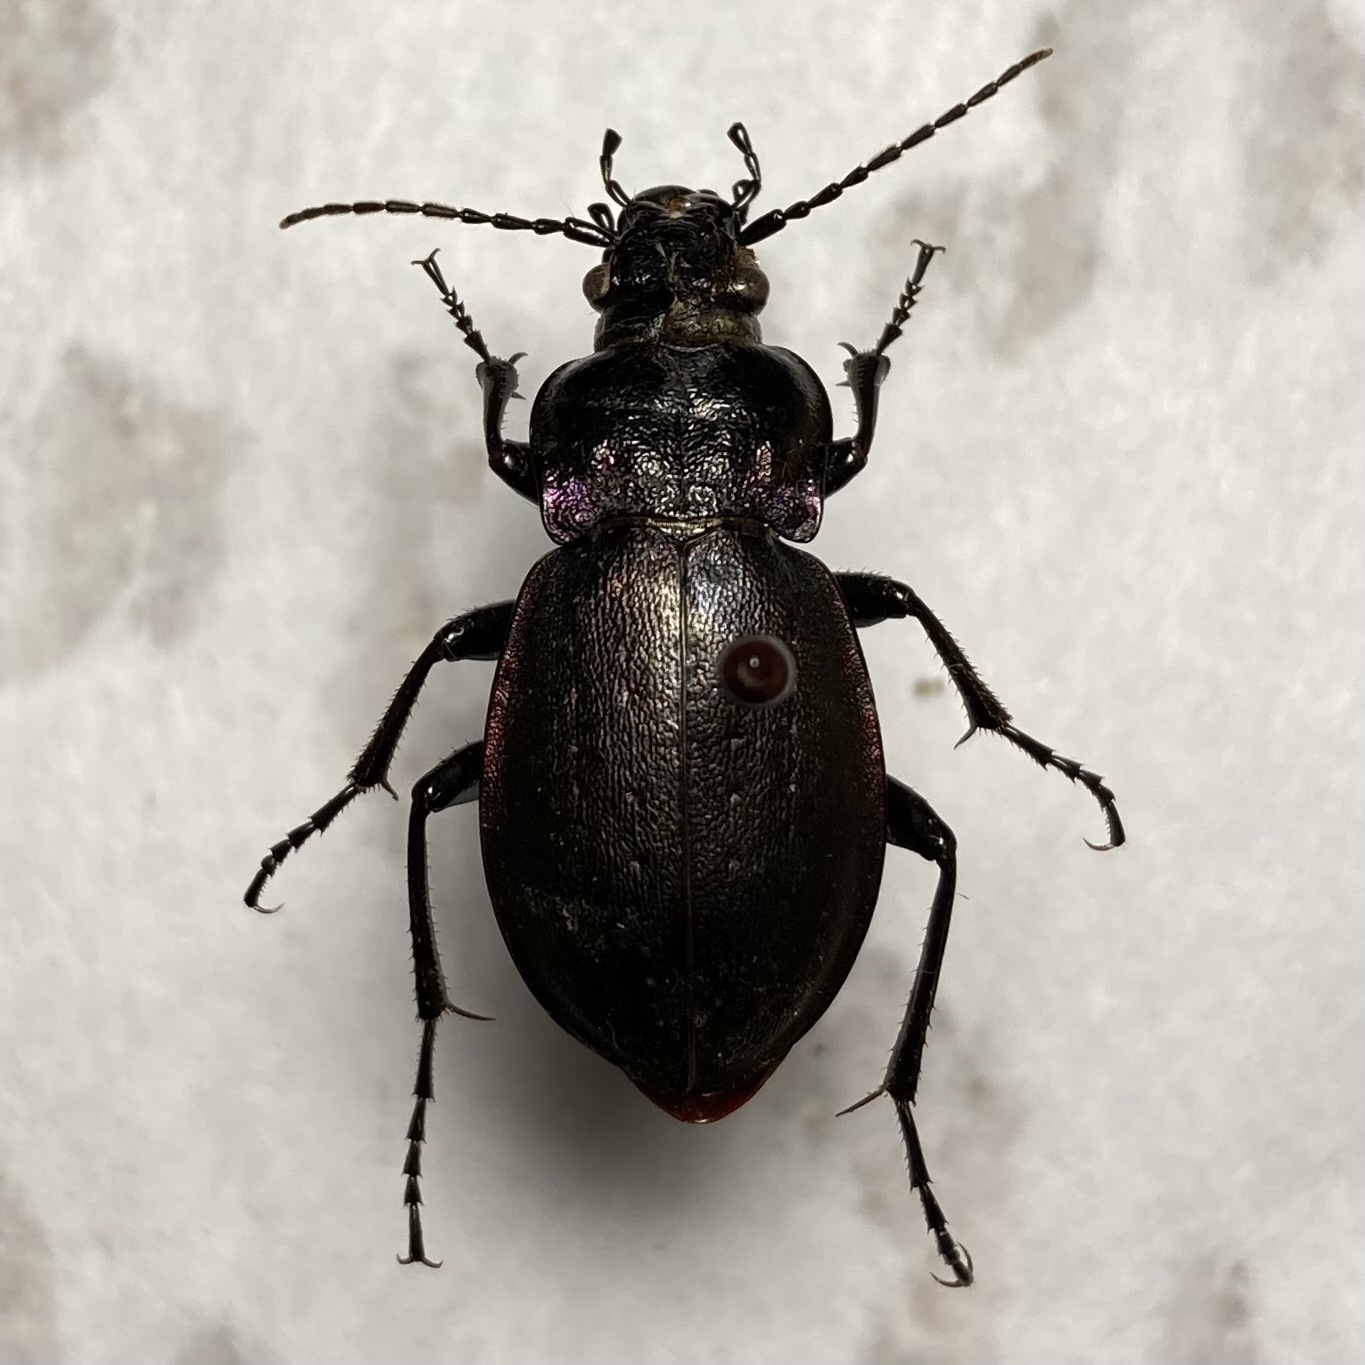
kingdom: Animalia
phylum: Arthropoda
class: Insecta
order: Coleoptera
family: Carabidae
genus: Carabus
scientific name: Carabus nemoralis
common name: European ground beetle
